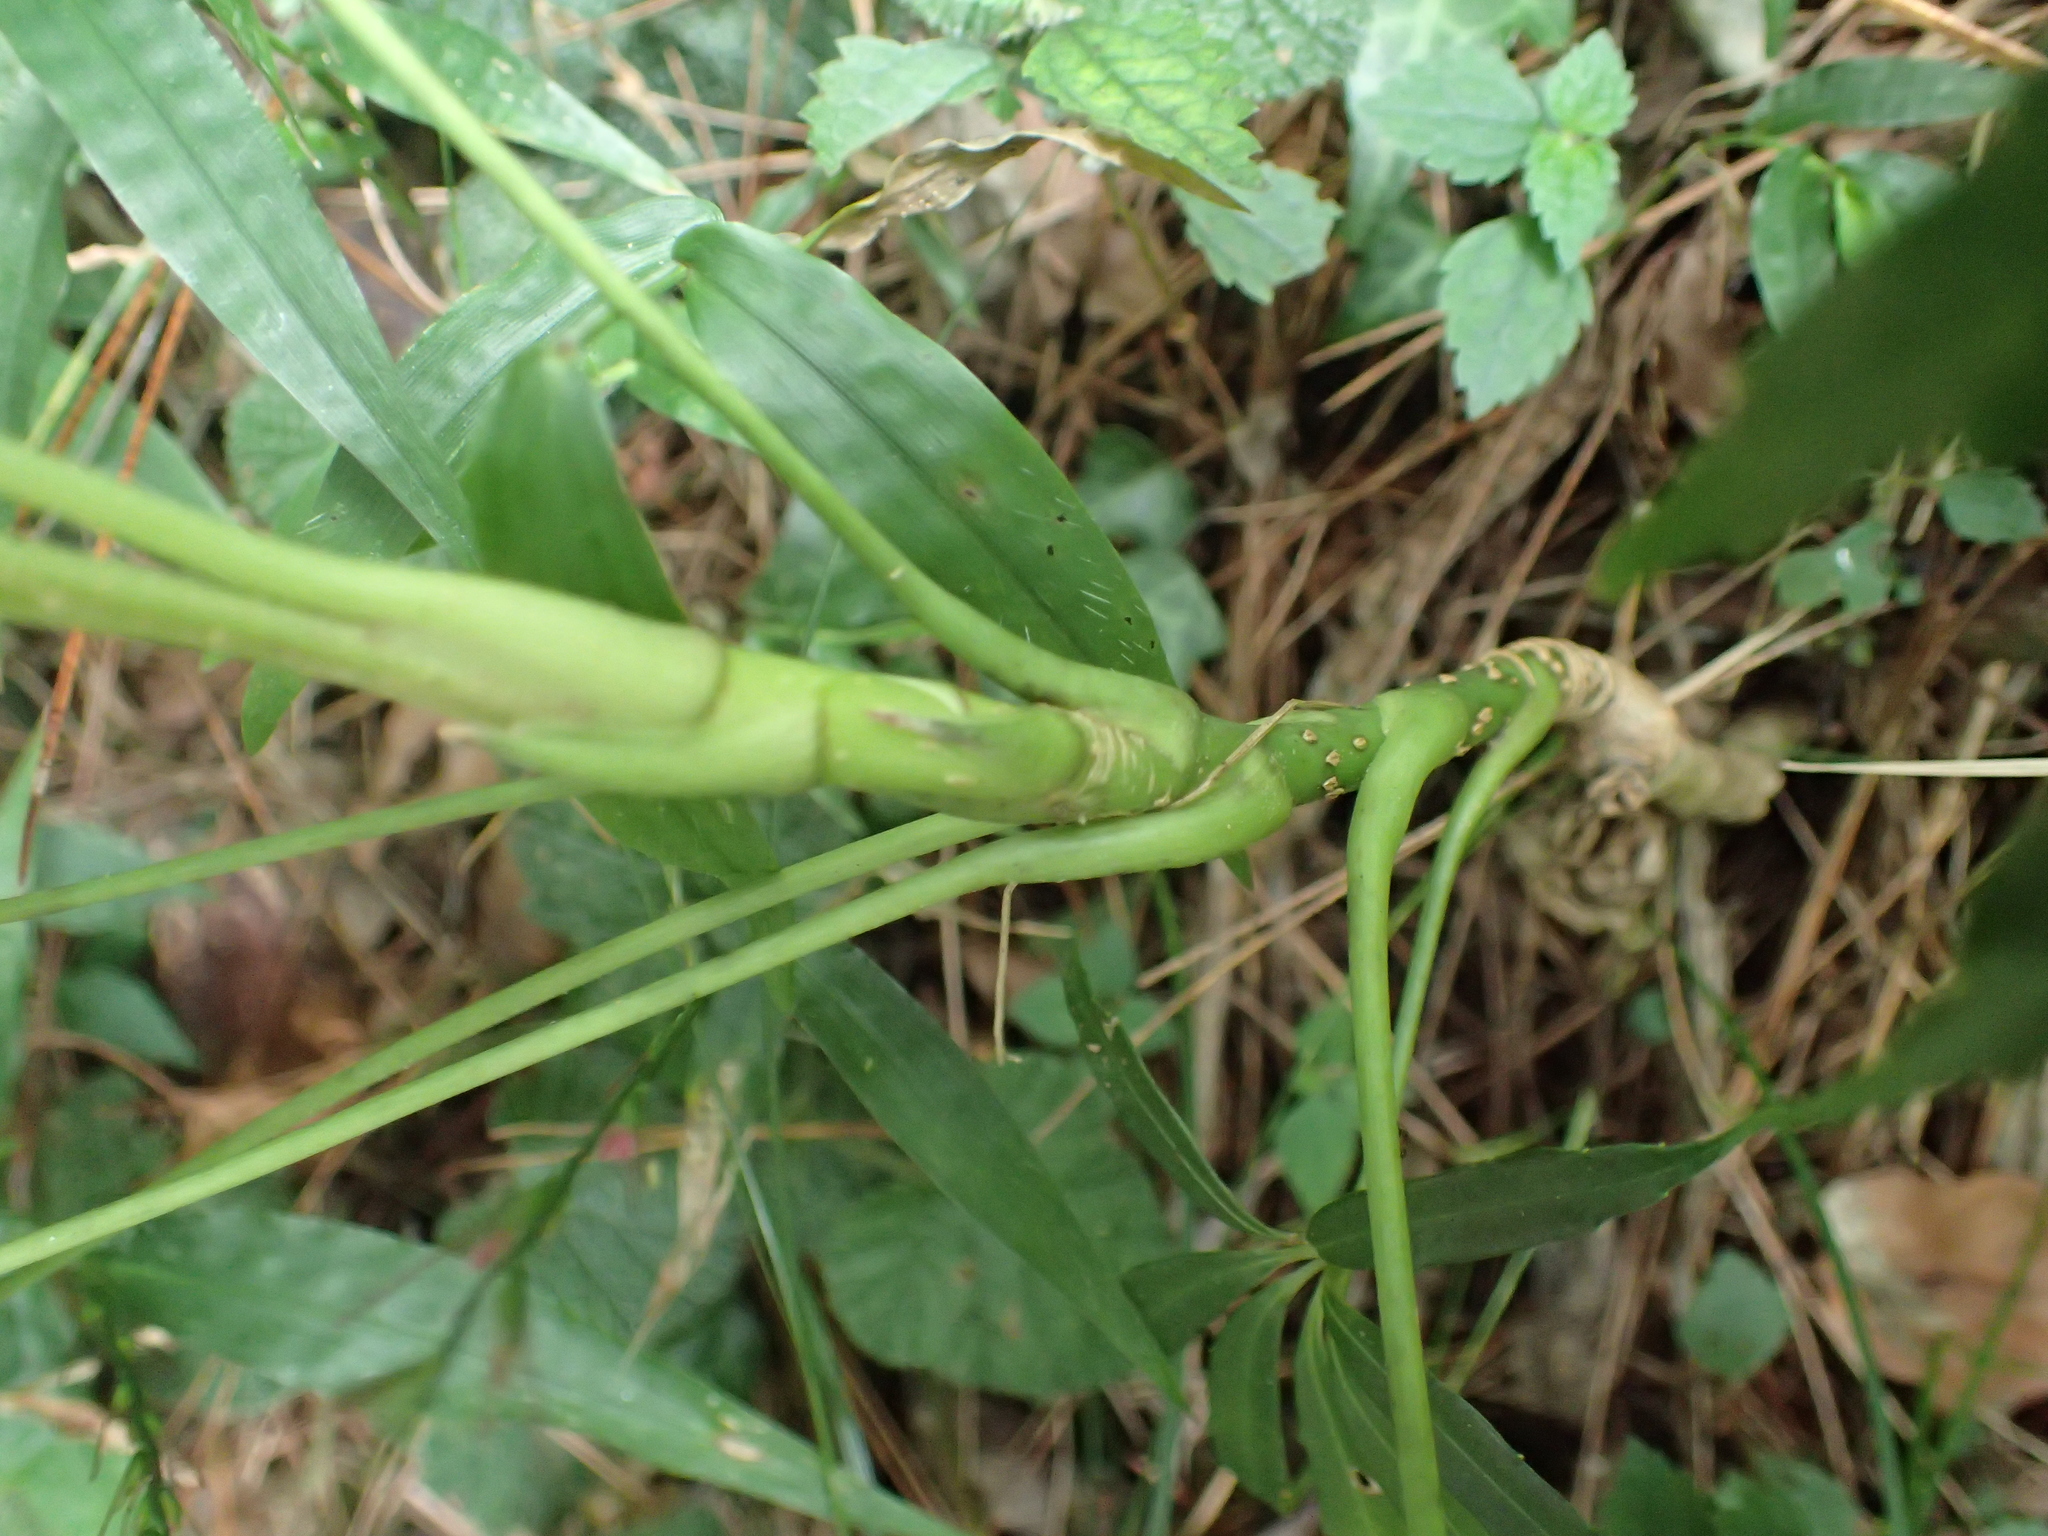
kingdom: Plantae
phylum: Tracheophyta
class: Magnoliopsida
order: Apiales
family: Araliaceae
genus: Heptapleurum
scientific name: Heptapleurum taiwanianum
